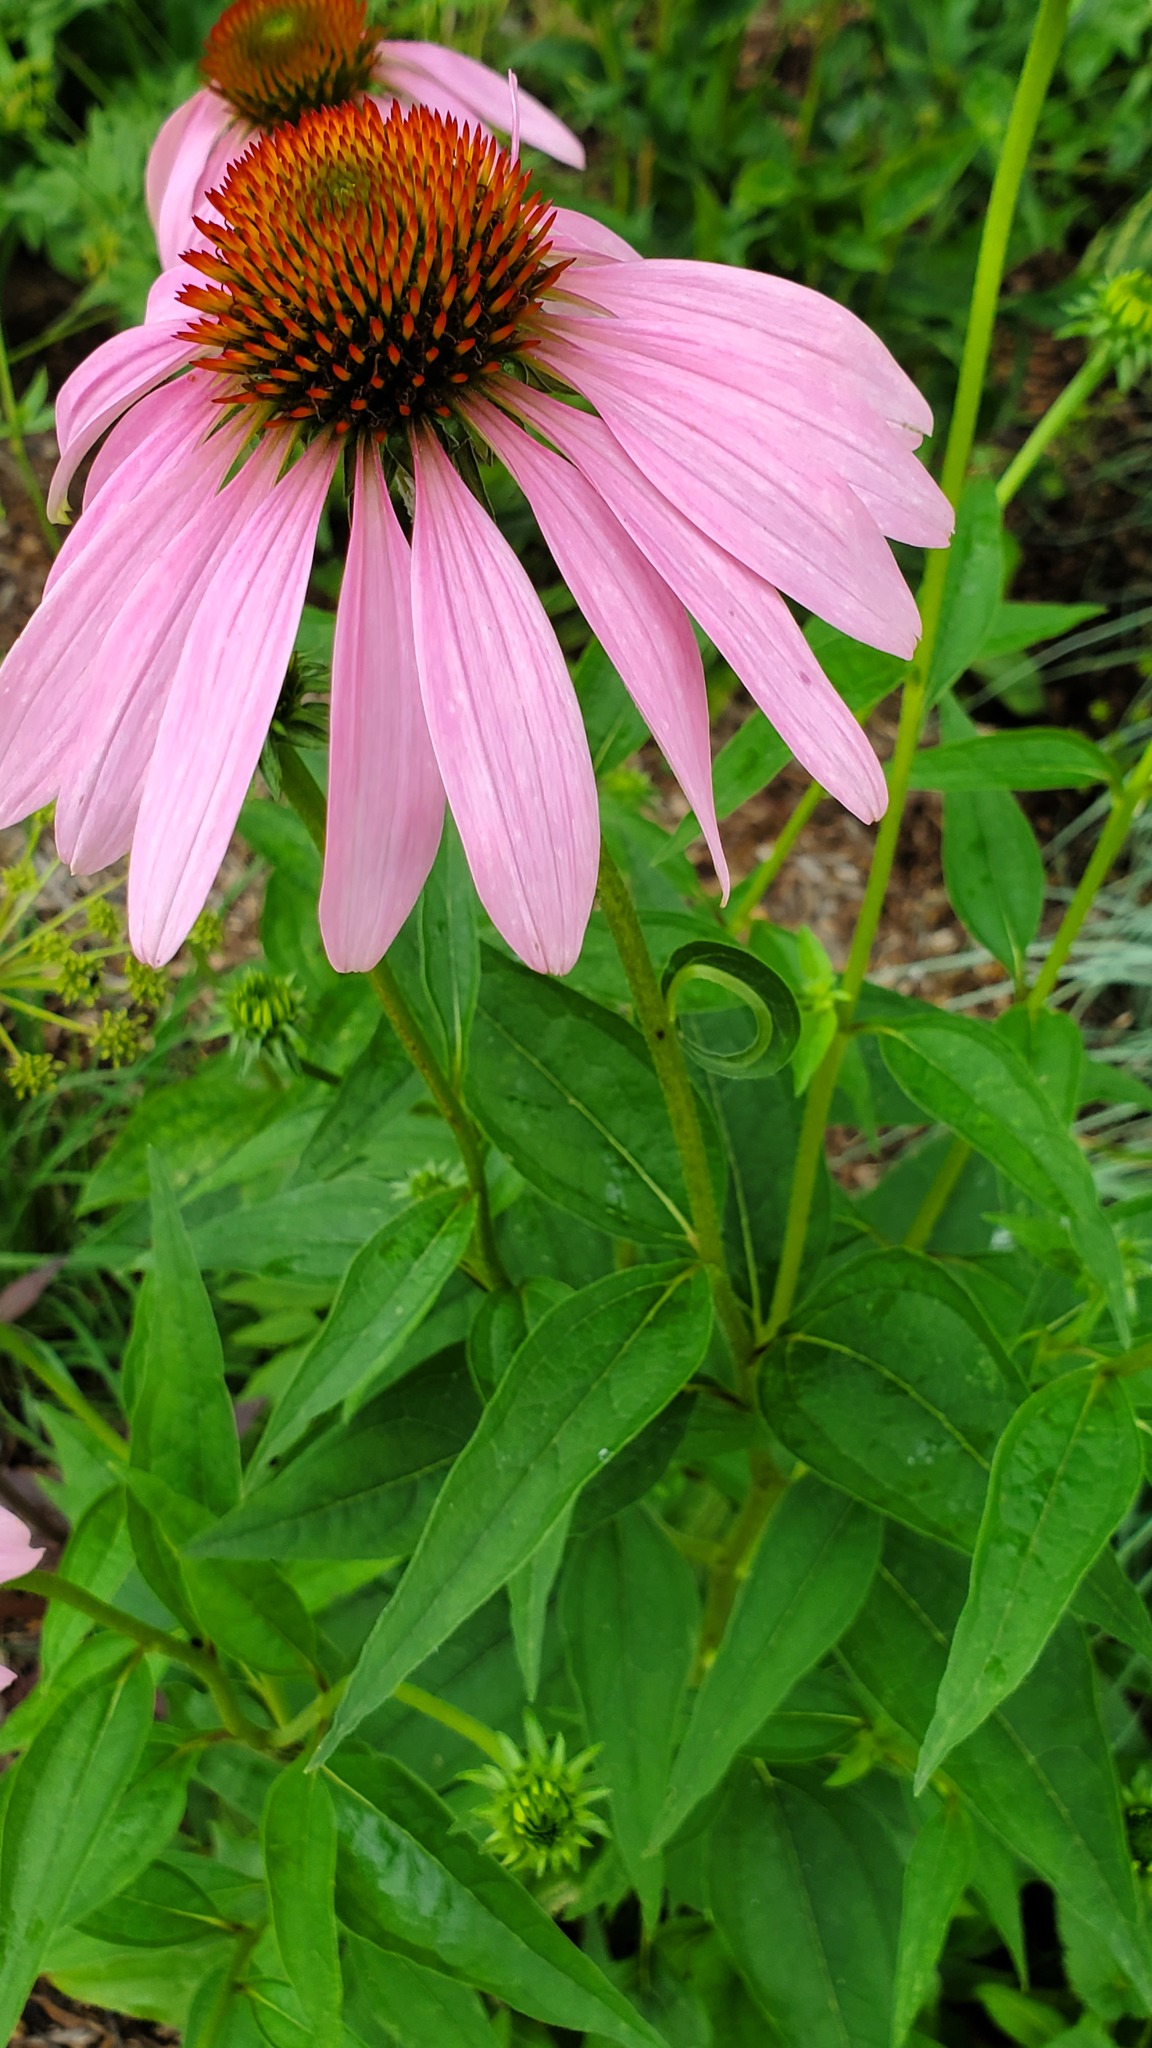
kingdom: Plantae
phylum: Tracheophyta
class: Magnoliopsida
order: Asterales
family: Asteraceae
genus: Echinacea
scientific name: Echinacea purpurea
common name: Broad-leaved purple coneflower
